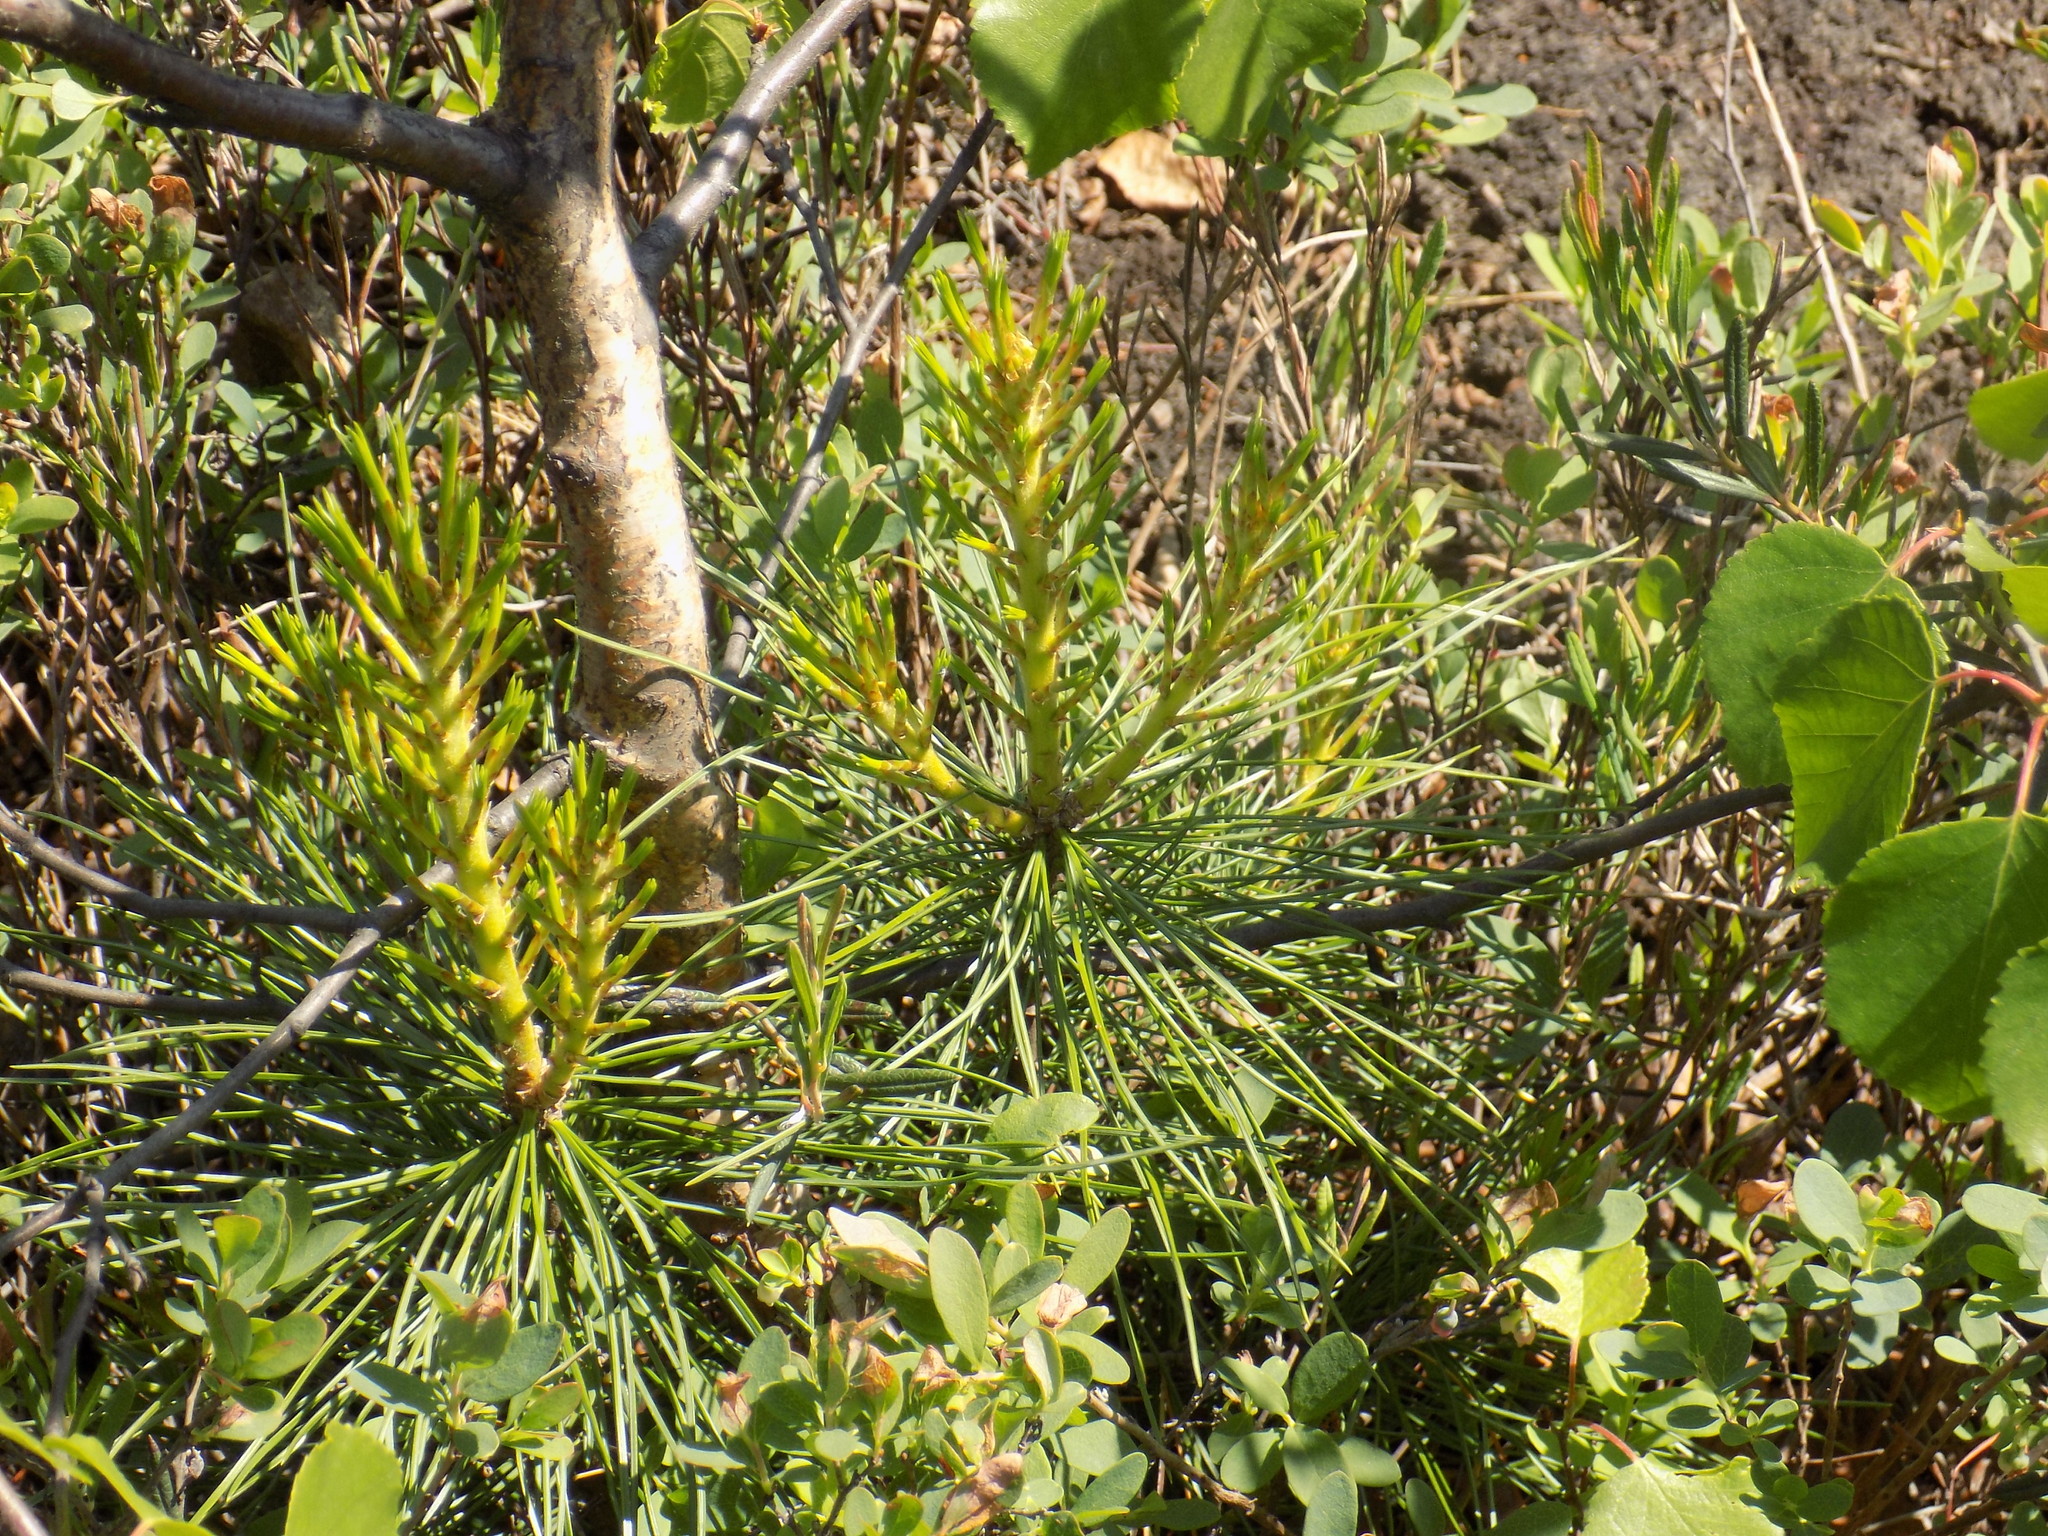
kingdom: Plantae
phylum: Tracheophyta
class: Pinopsida
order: Pinales
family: Pinaceae
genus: Pinus
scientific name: Pinus sylvestris
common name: Scots pine
